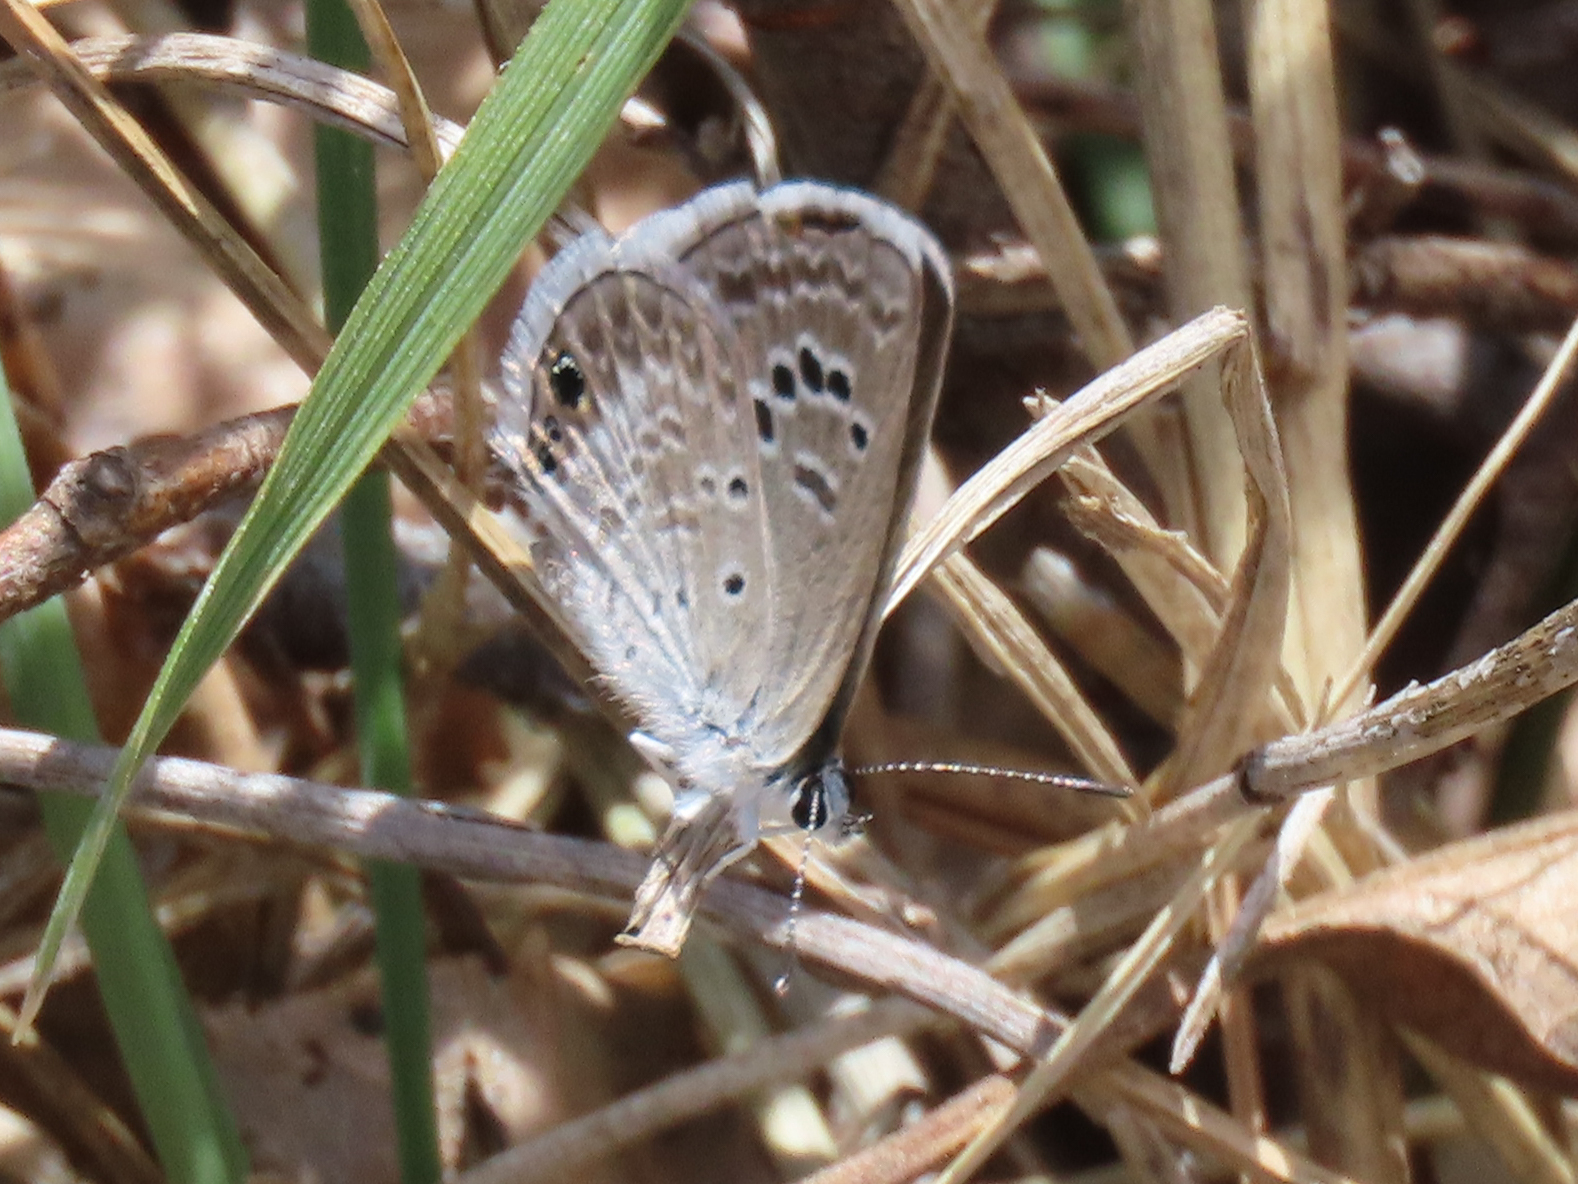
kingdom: Animalia
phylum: Arthropoda
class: Insecta
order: Lepidoptera
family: Lycaenidae
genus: Echinargus
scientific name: Echinargus isola
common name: Reakirt's blue
